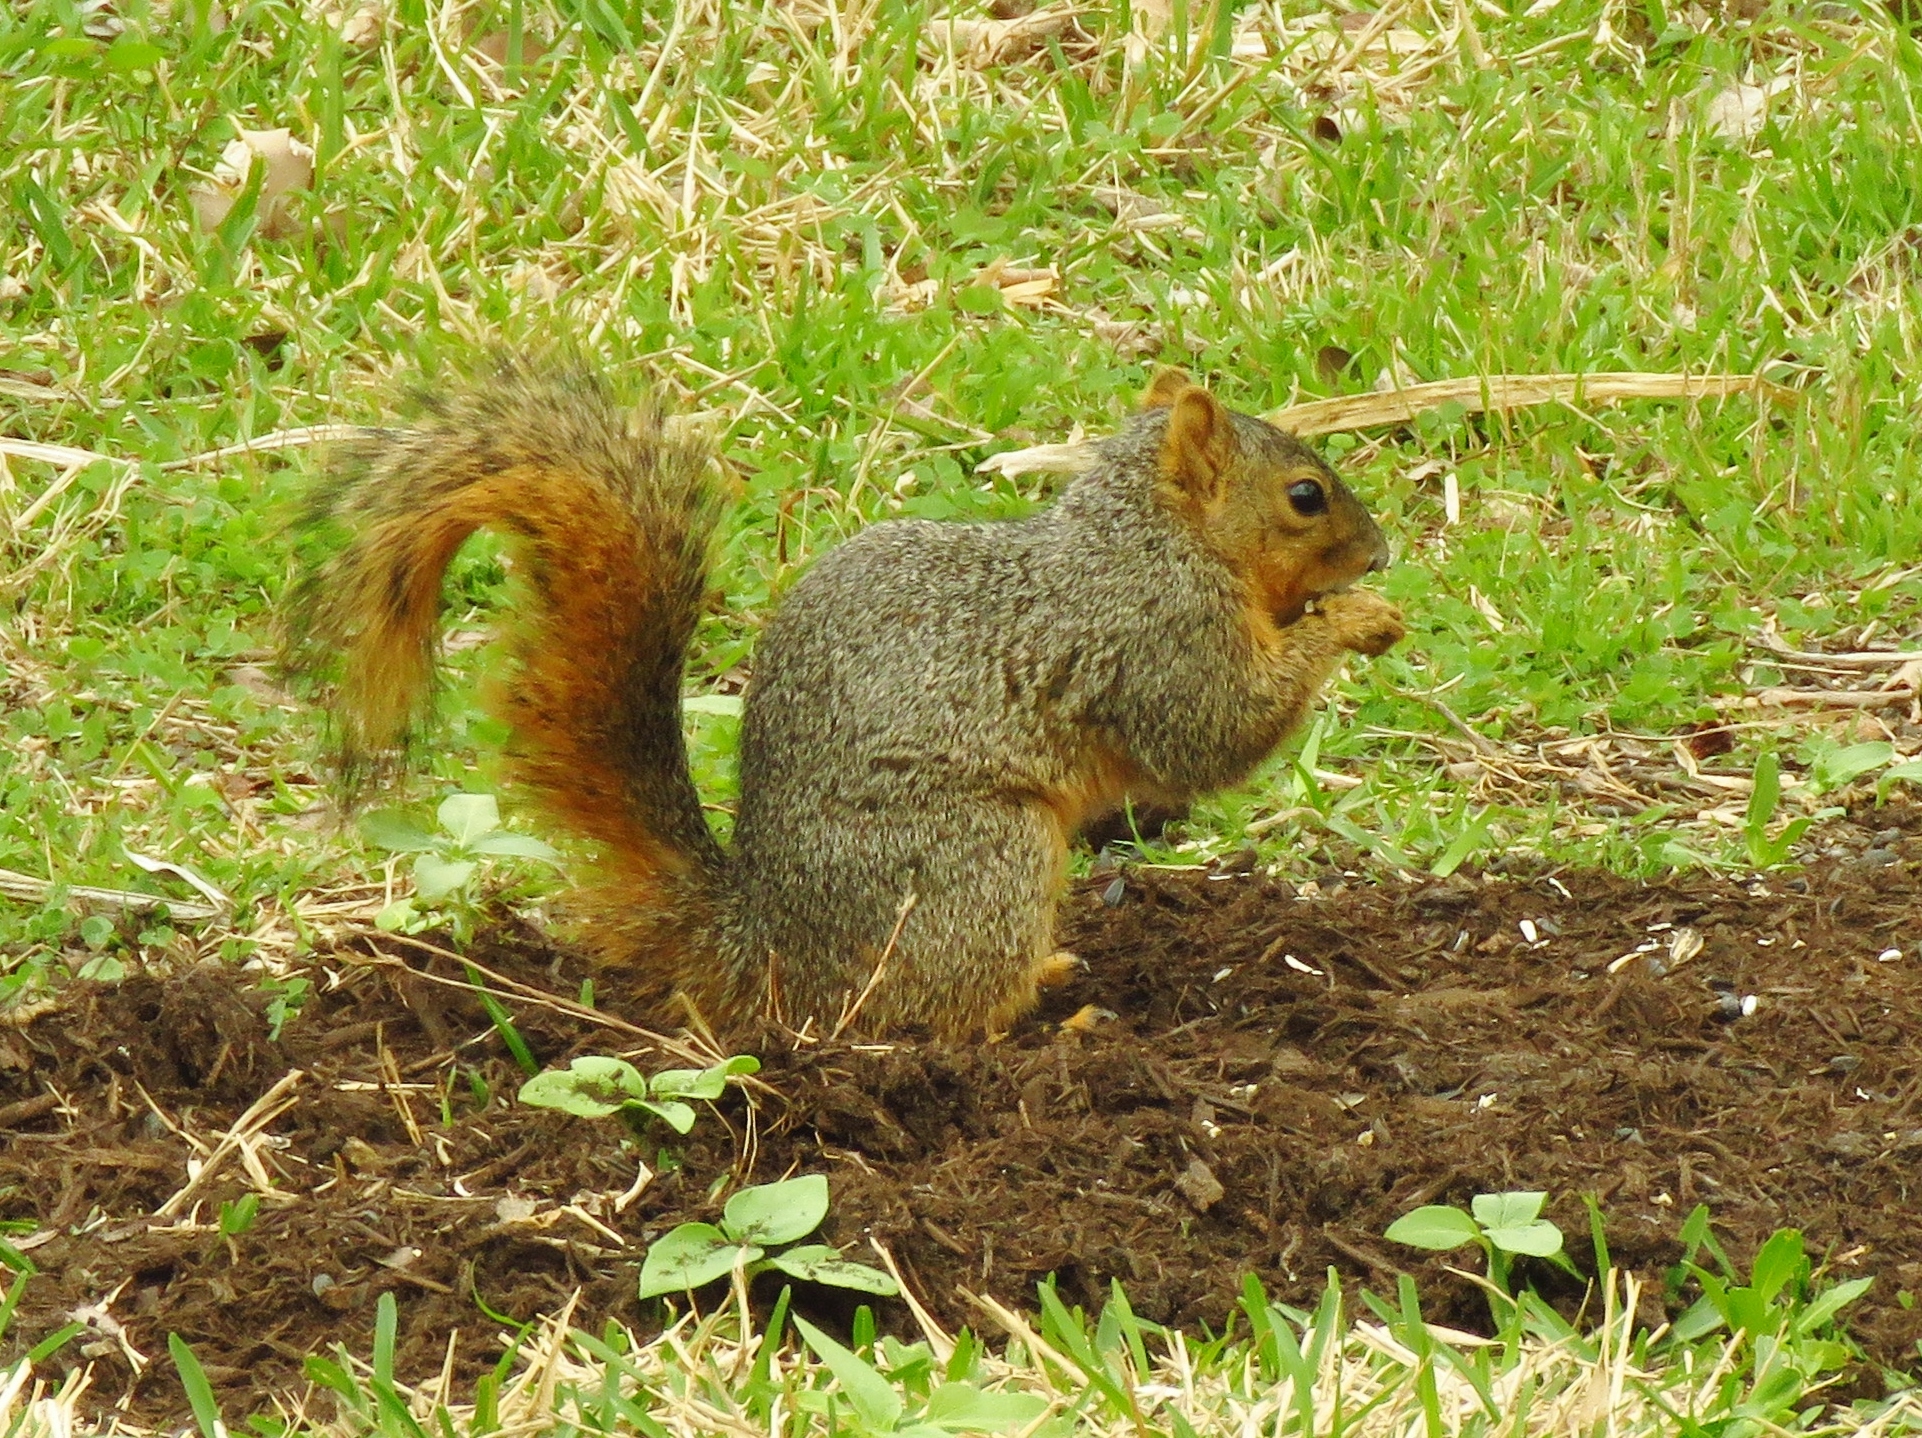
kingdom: Animalia
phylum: Chordata
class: Mammalia
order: Rodentia
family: Sciuridae
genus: Sciurus
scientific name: Sciurus niger
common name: Fox squirrel
